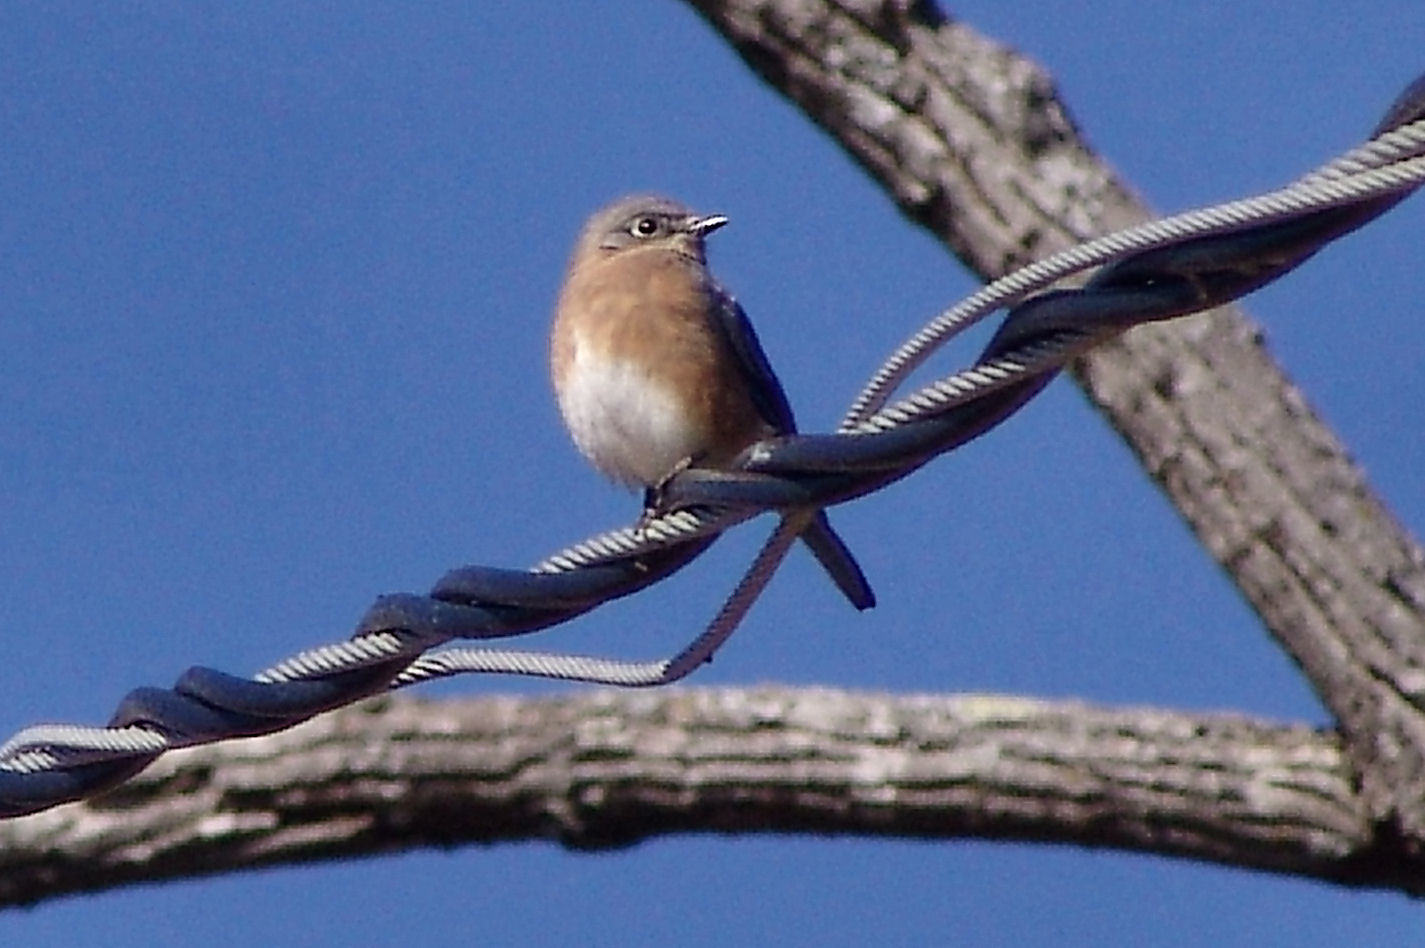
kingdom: Animalia
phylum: Chordata
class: Aves
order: Passeriformes
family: Turdidae
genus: Sialia
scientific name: Sialia sialis
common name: Eastern bluebird
